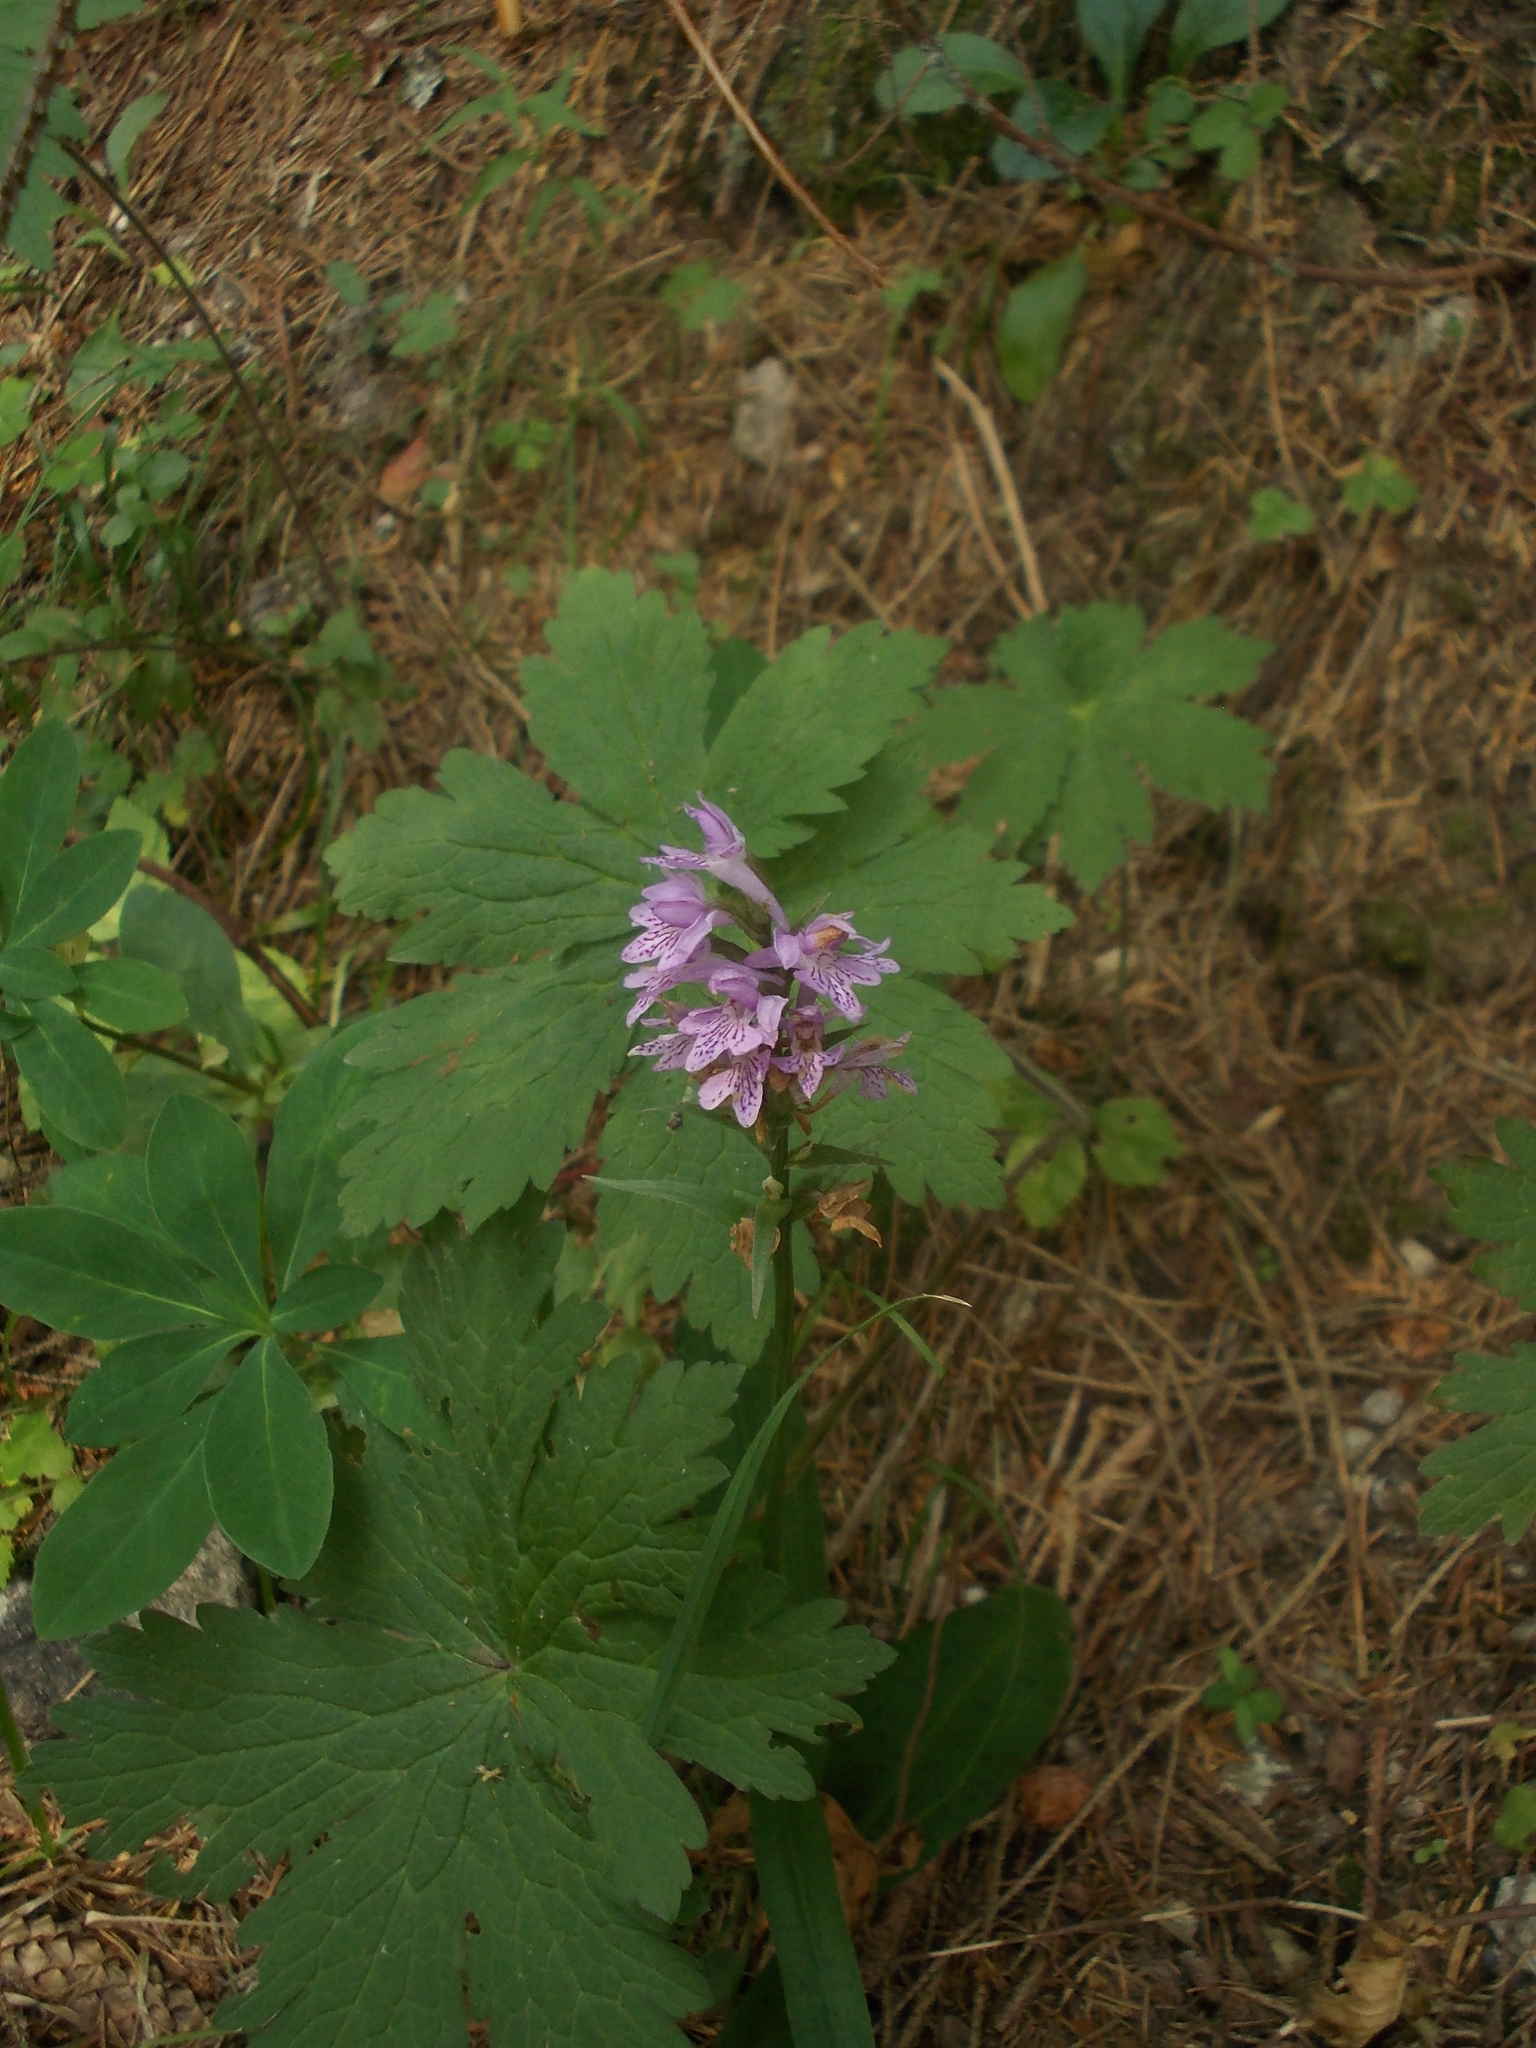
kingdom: Plantae
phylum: Tracheophyta
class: Liliopsida
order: Asparagales
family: Orchidaceae
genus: Dactylorhiza
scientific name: Dactylorhiza maculata
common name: Heath spotted-orchid
